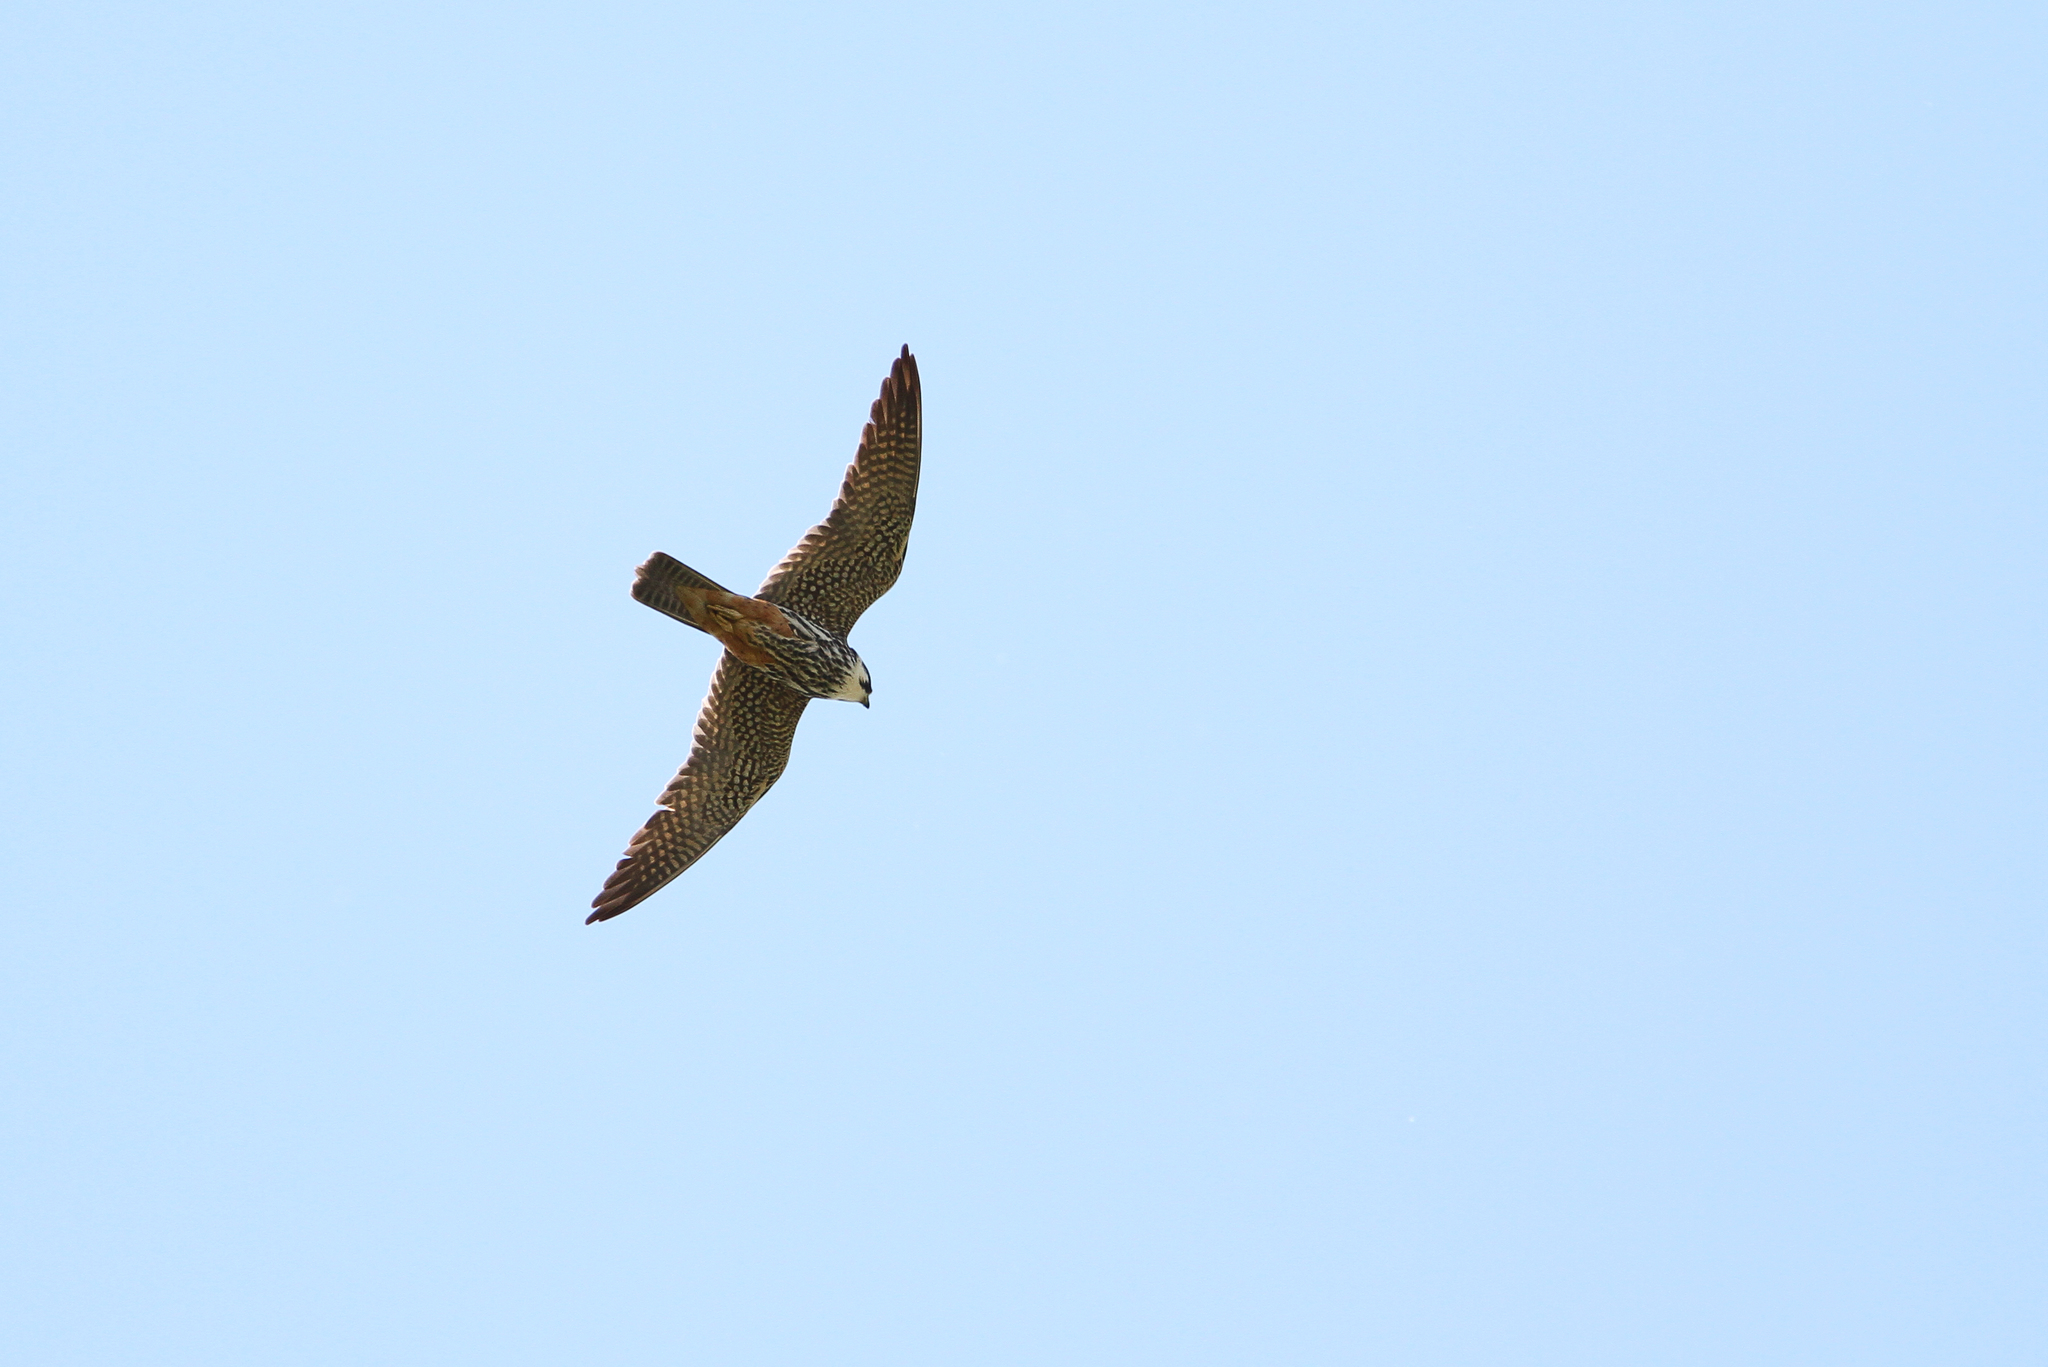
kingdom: Animalia
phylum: Chordata
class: Aves
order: Falconiformes
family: Falconidae
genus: Falco
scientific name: Falco subbuteo
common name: Eurasian hobby
